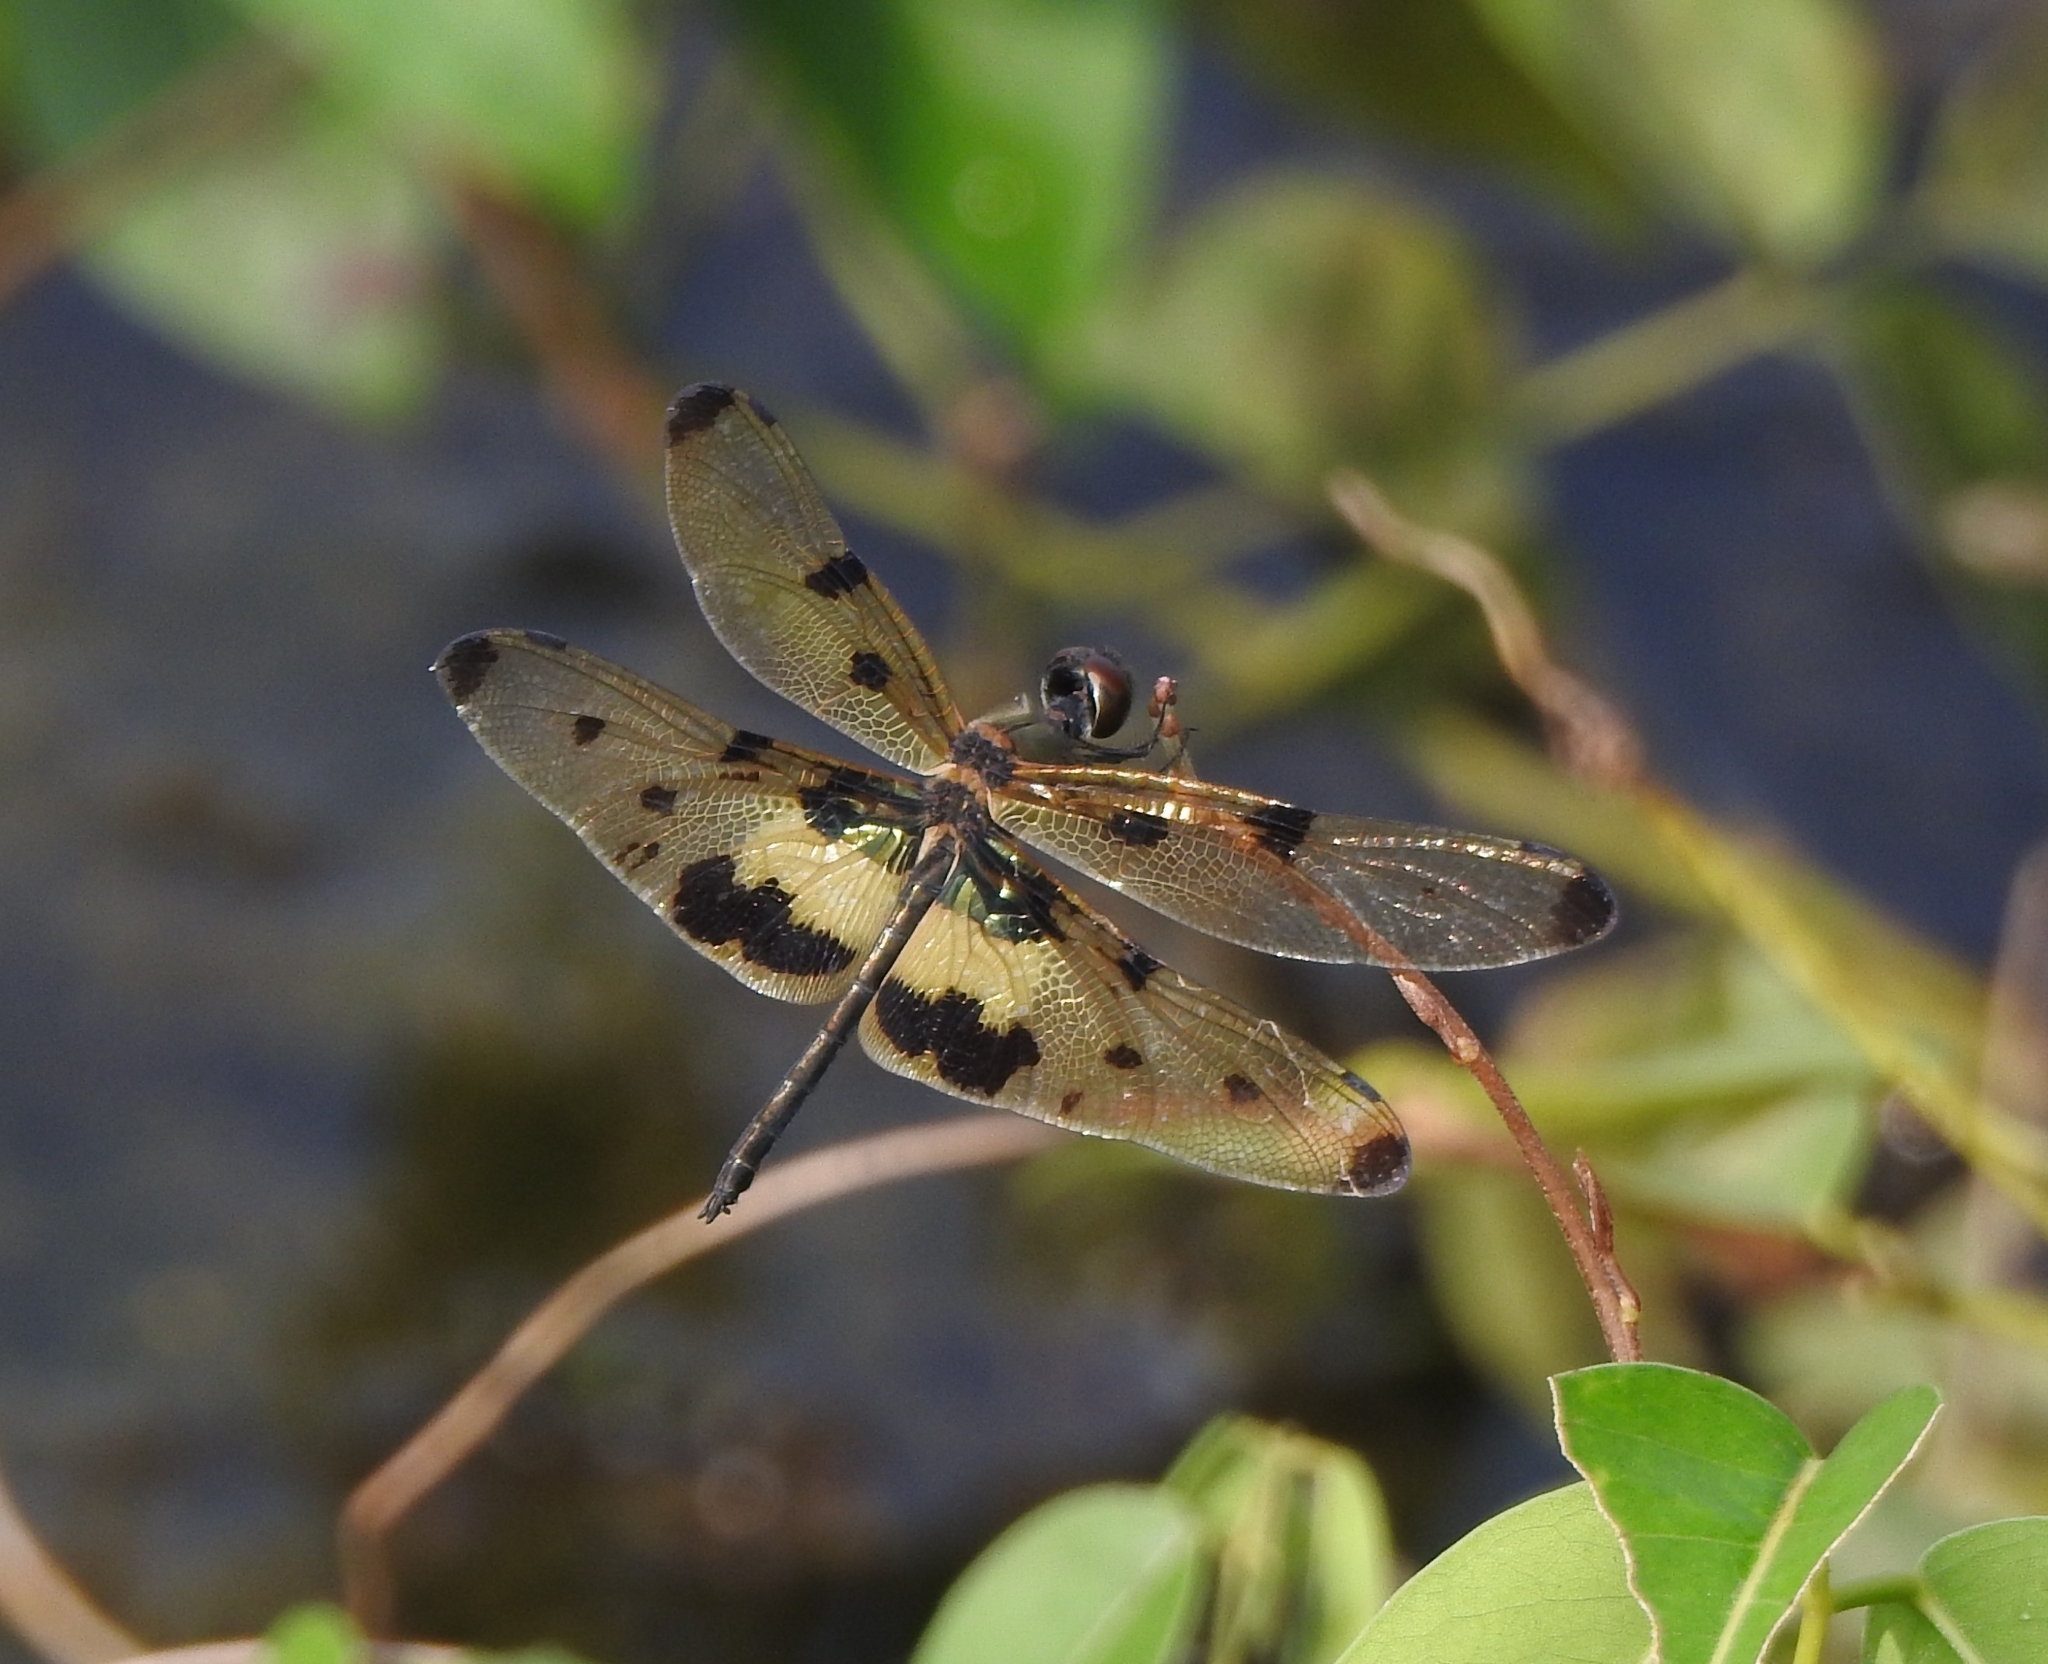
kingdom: Animalia
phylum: Arthropoda
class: Insecta
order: Odonata
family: Libellulidae
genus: Rhyothemis
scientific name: Rhyothemis variegata
